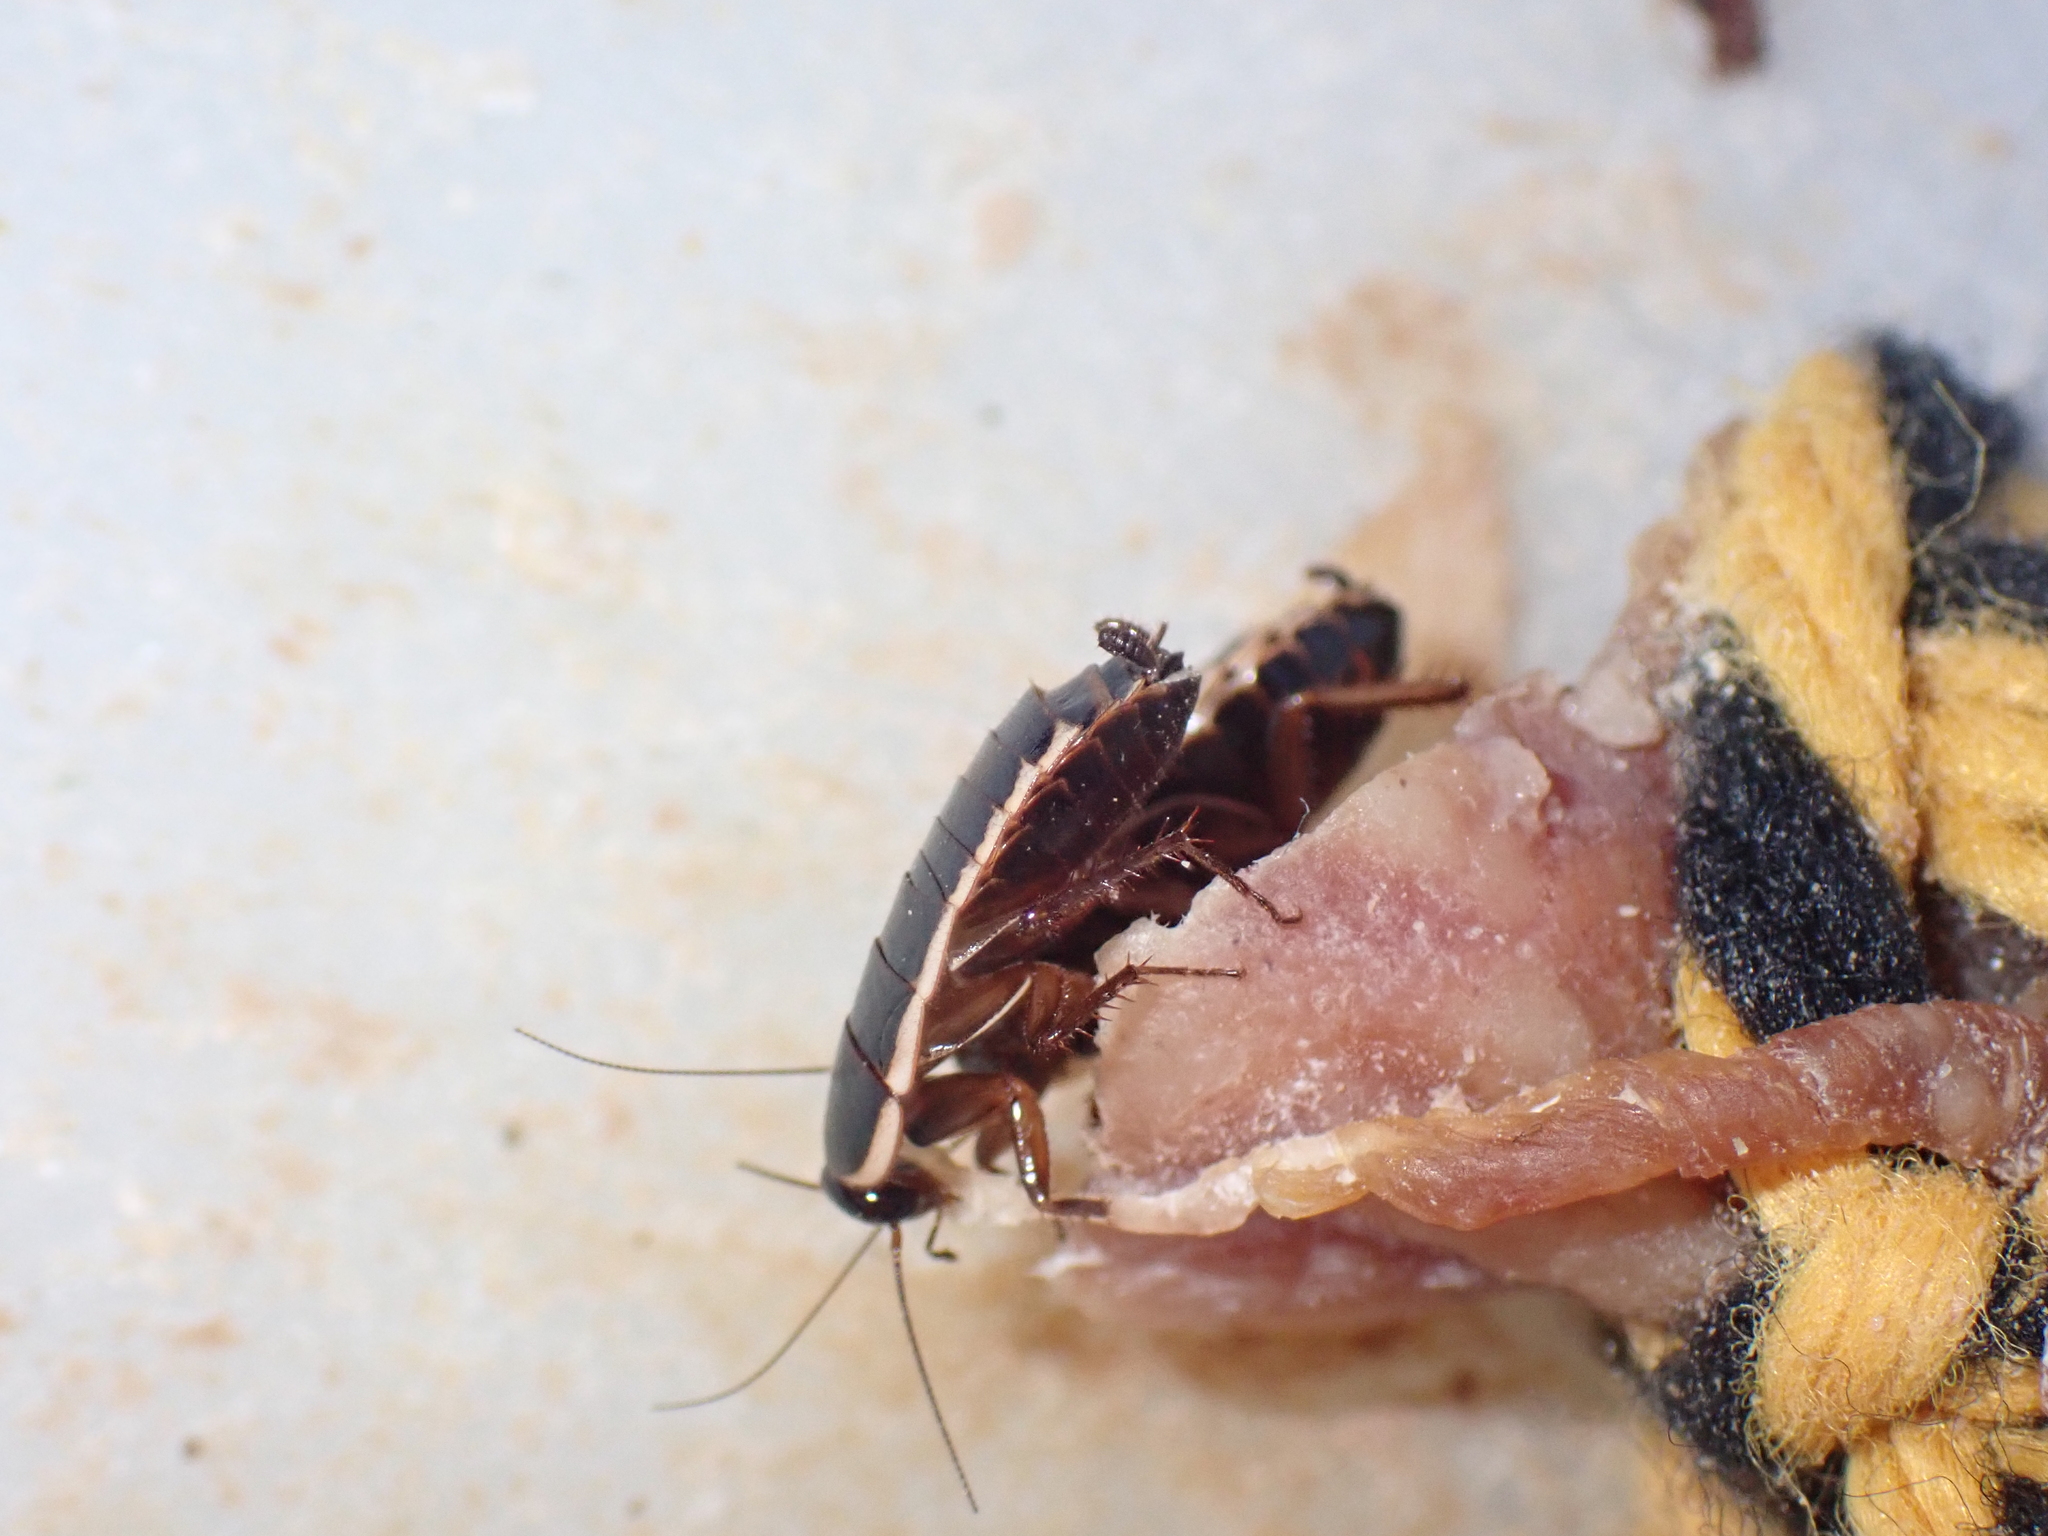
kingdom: Animalia
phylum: Arthropoda
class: Insecta
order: Blattodea
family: Ectobiidae
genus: Loboptera
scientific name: Loboptera decipiens
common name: Lobe-winged cockroach
